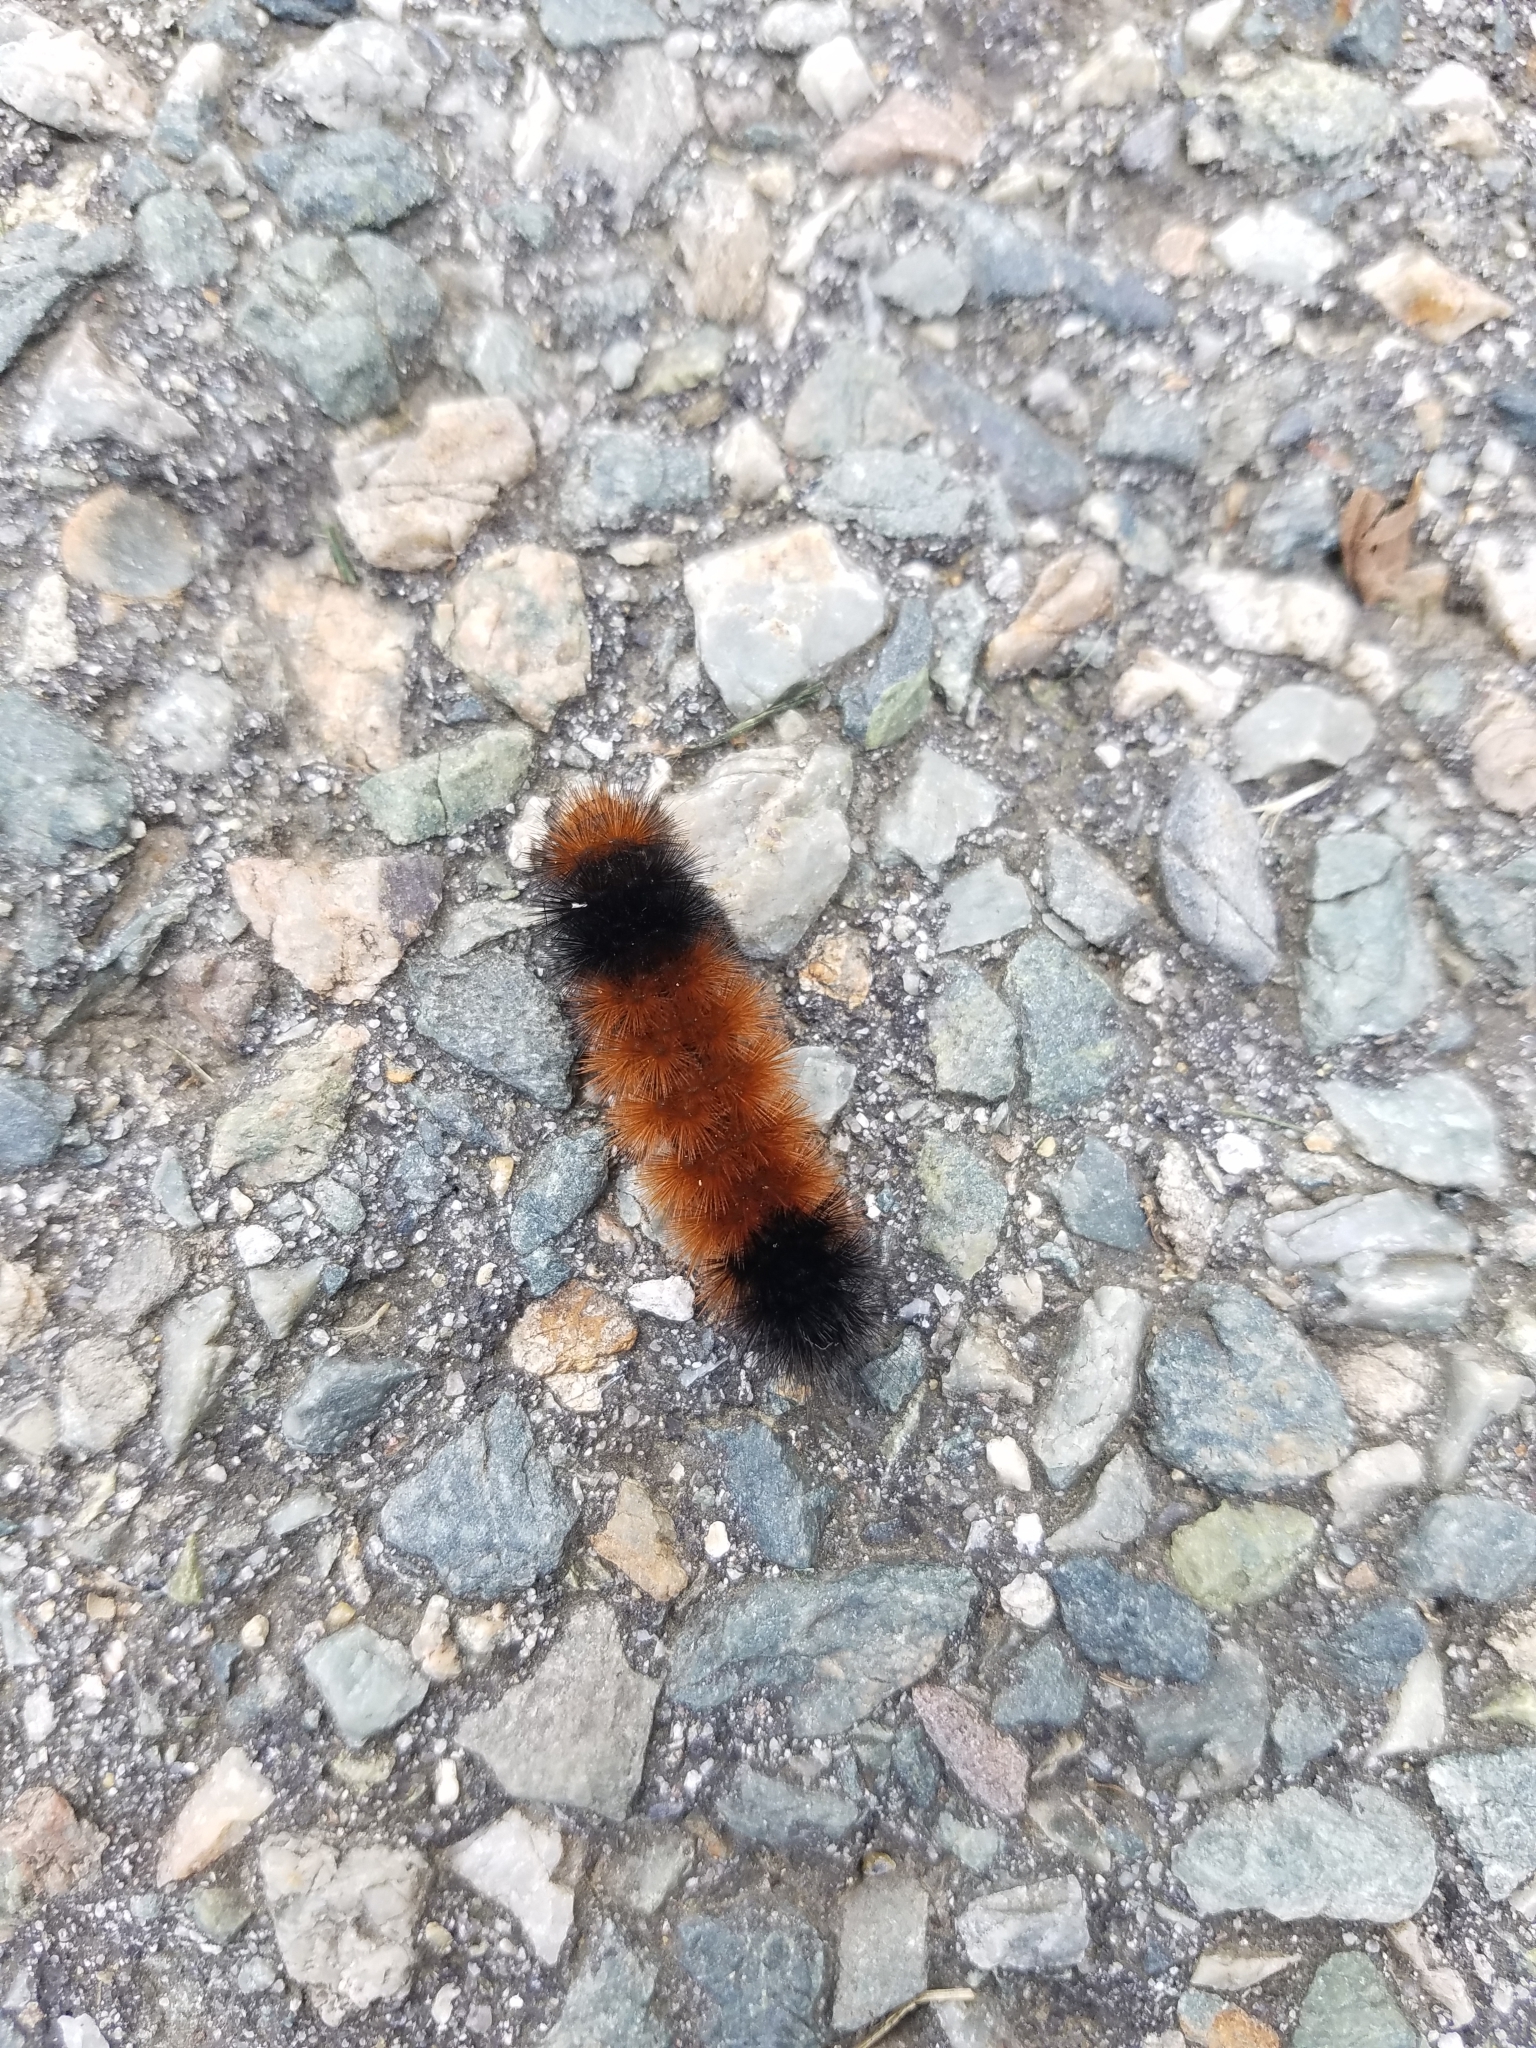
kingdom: Animalia
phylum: Arthropoda
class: Insecta
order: Lepidoptera
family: Erebidae
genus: Pyrrharctia
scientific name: Pyrrharctia isabella
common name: Isabella tiger moth
